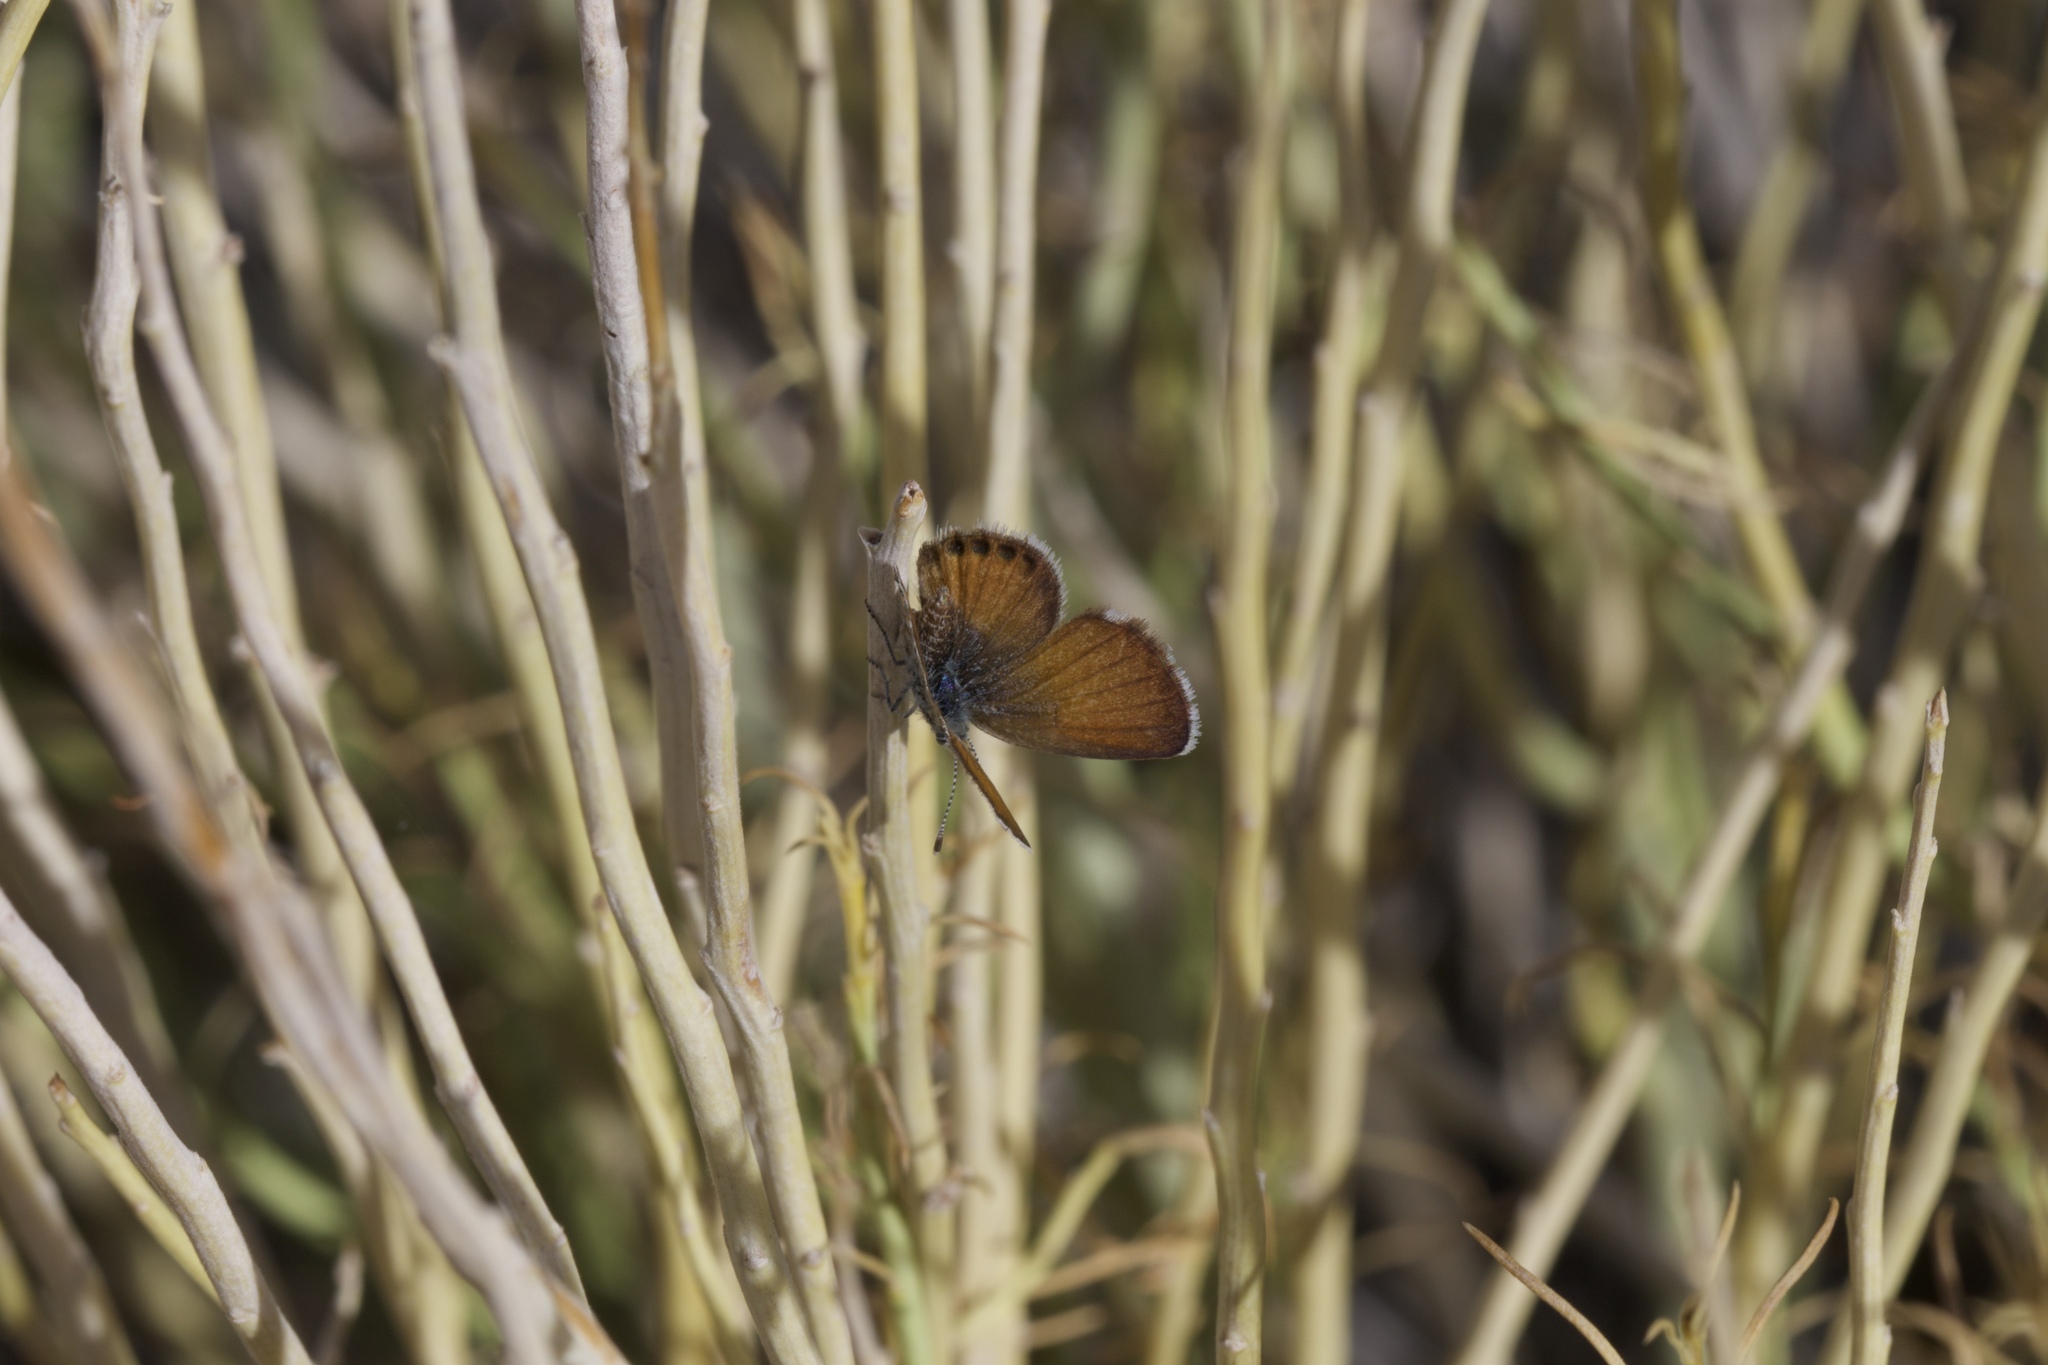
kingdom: Animalia
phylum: Arthropoda
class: Insecta
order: Lepidoptera
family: Lycaenidae
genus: Brephidium
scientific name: Brephidium exilis
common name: Pygmy blue
